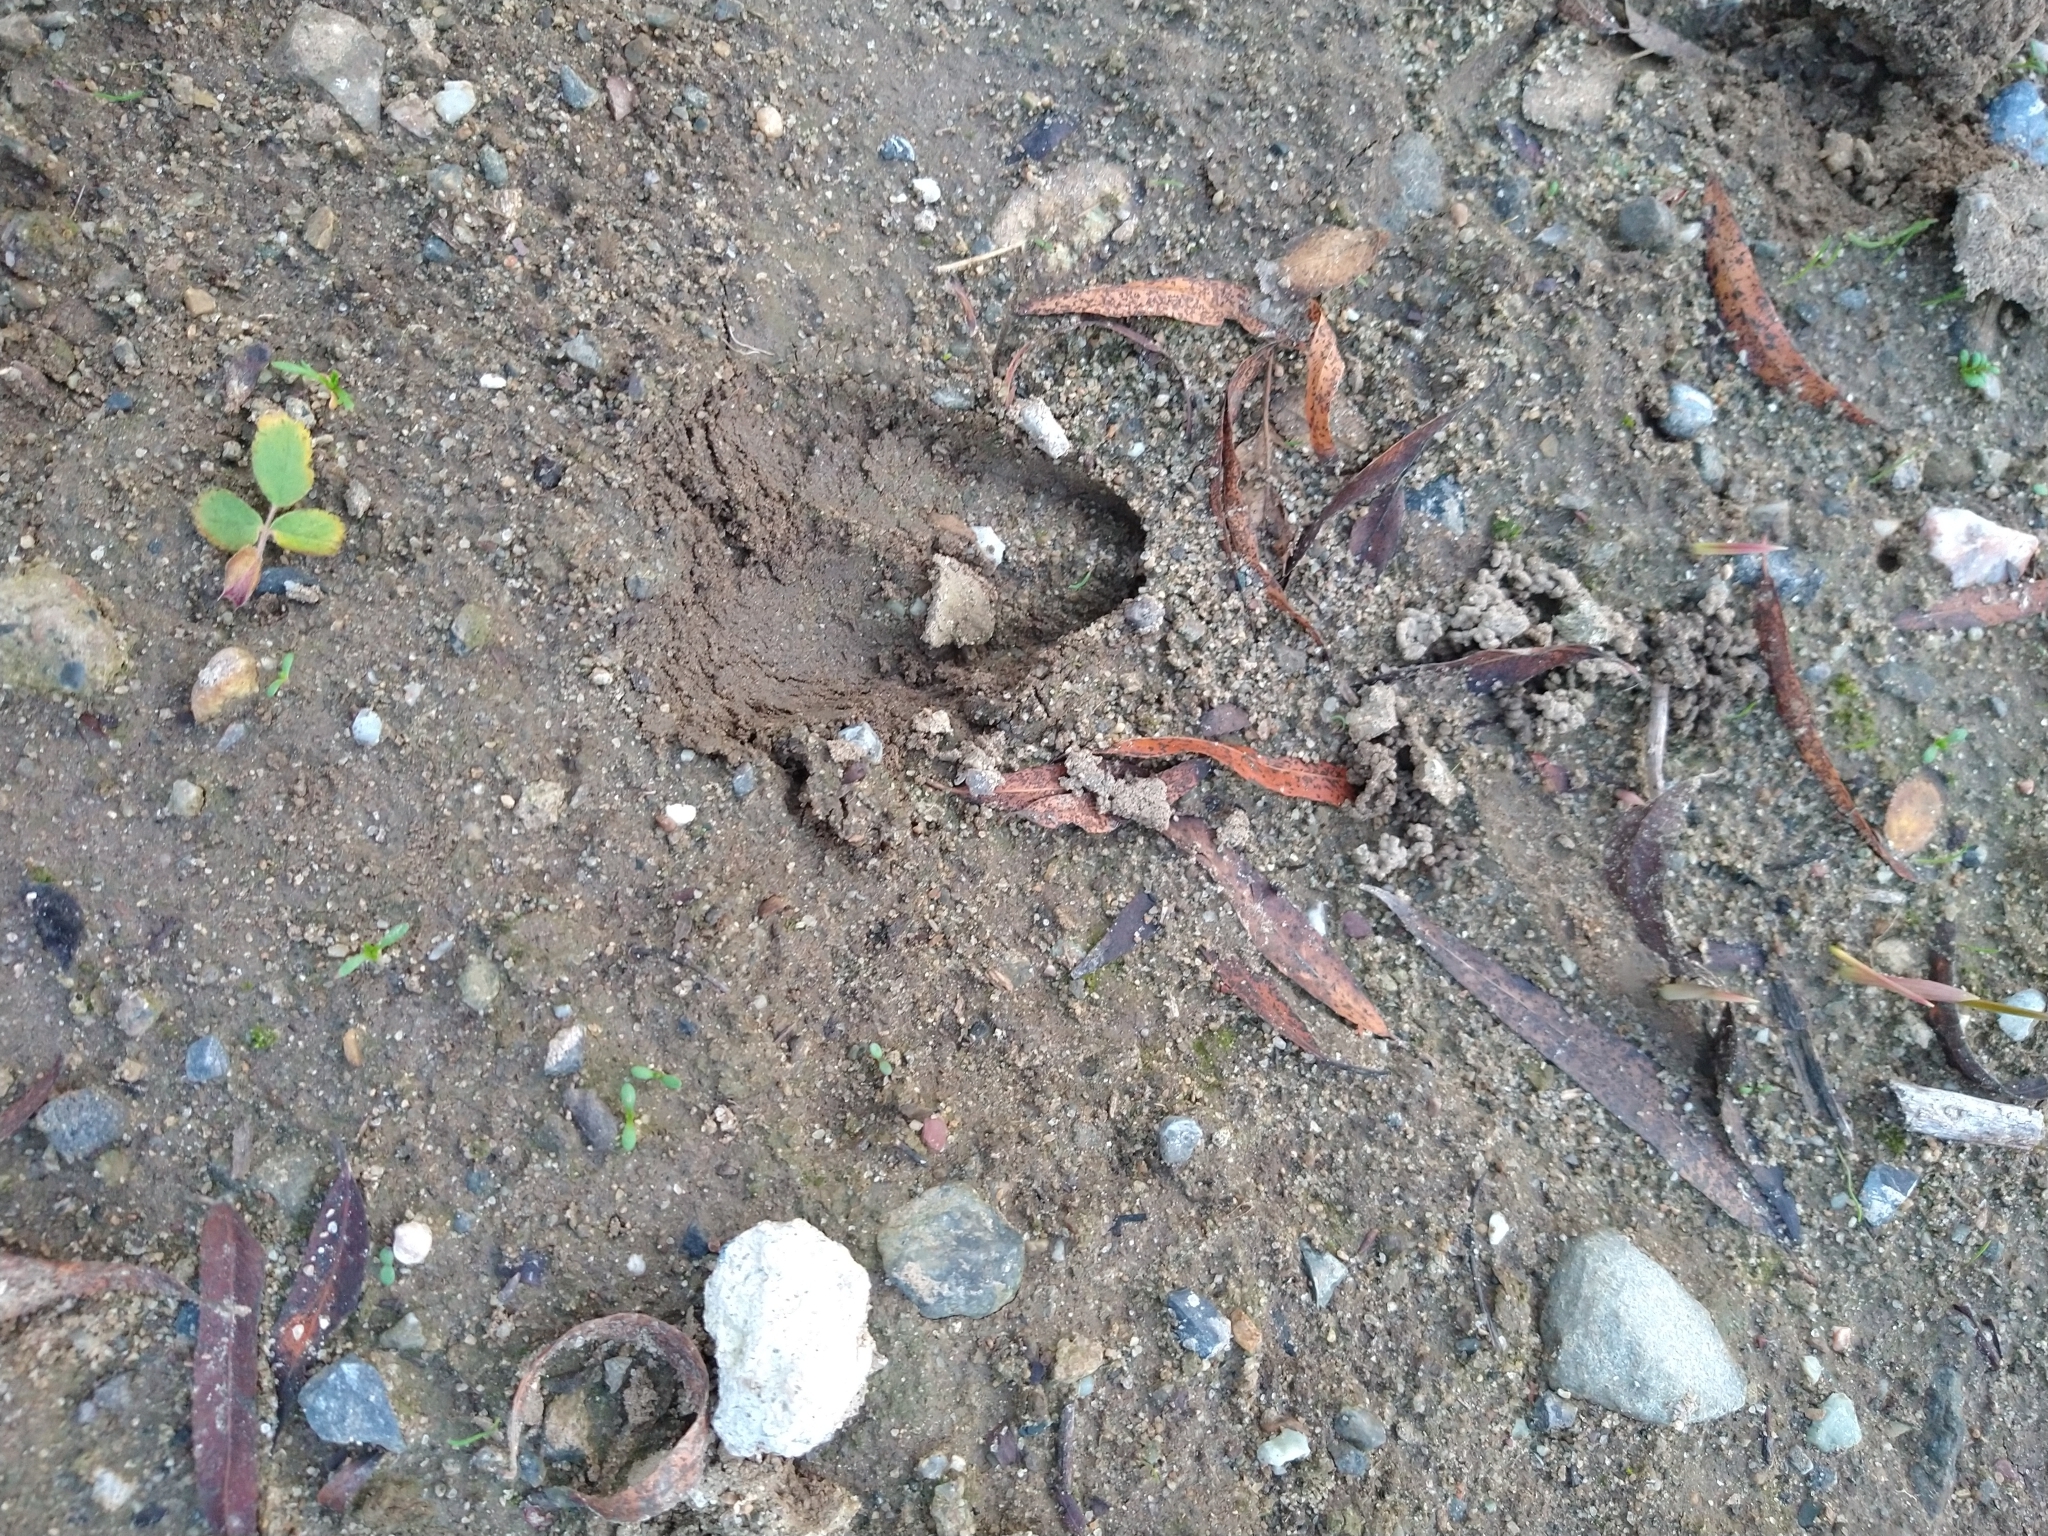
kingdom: Animalia
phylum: Chordata
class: Mammalia
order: Artiodactyla
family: Cervidae
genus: Odocoileus
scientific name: Odocoileus hemionus
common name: Mule deer
